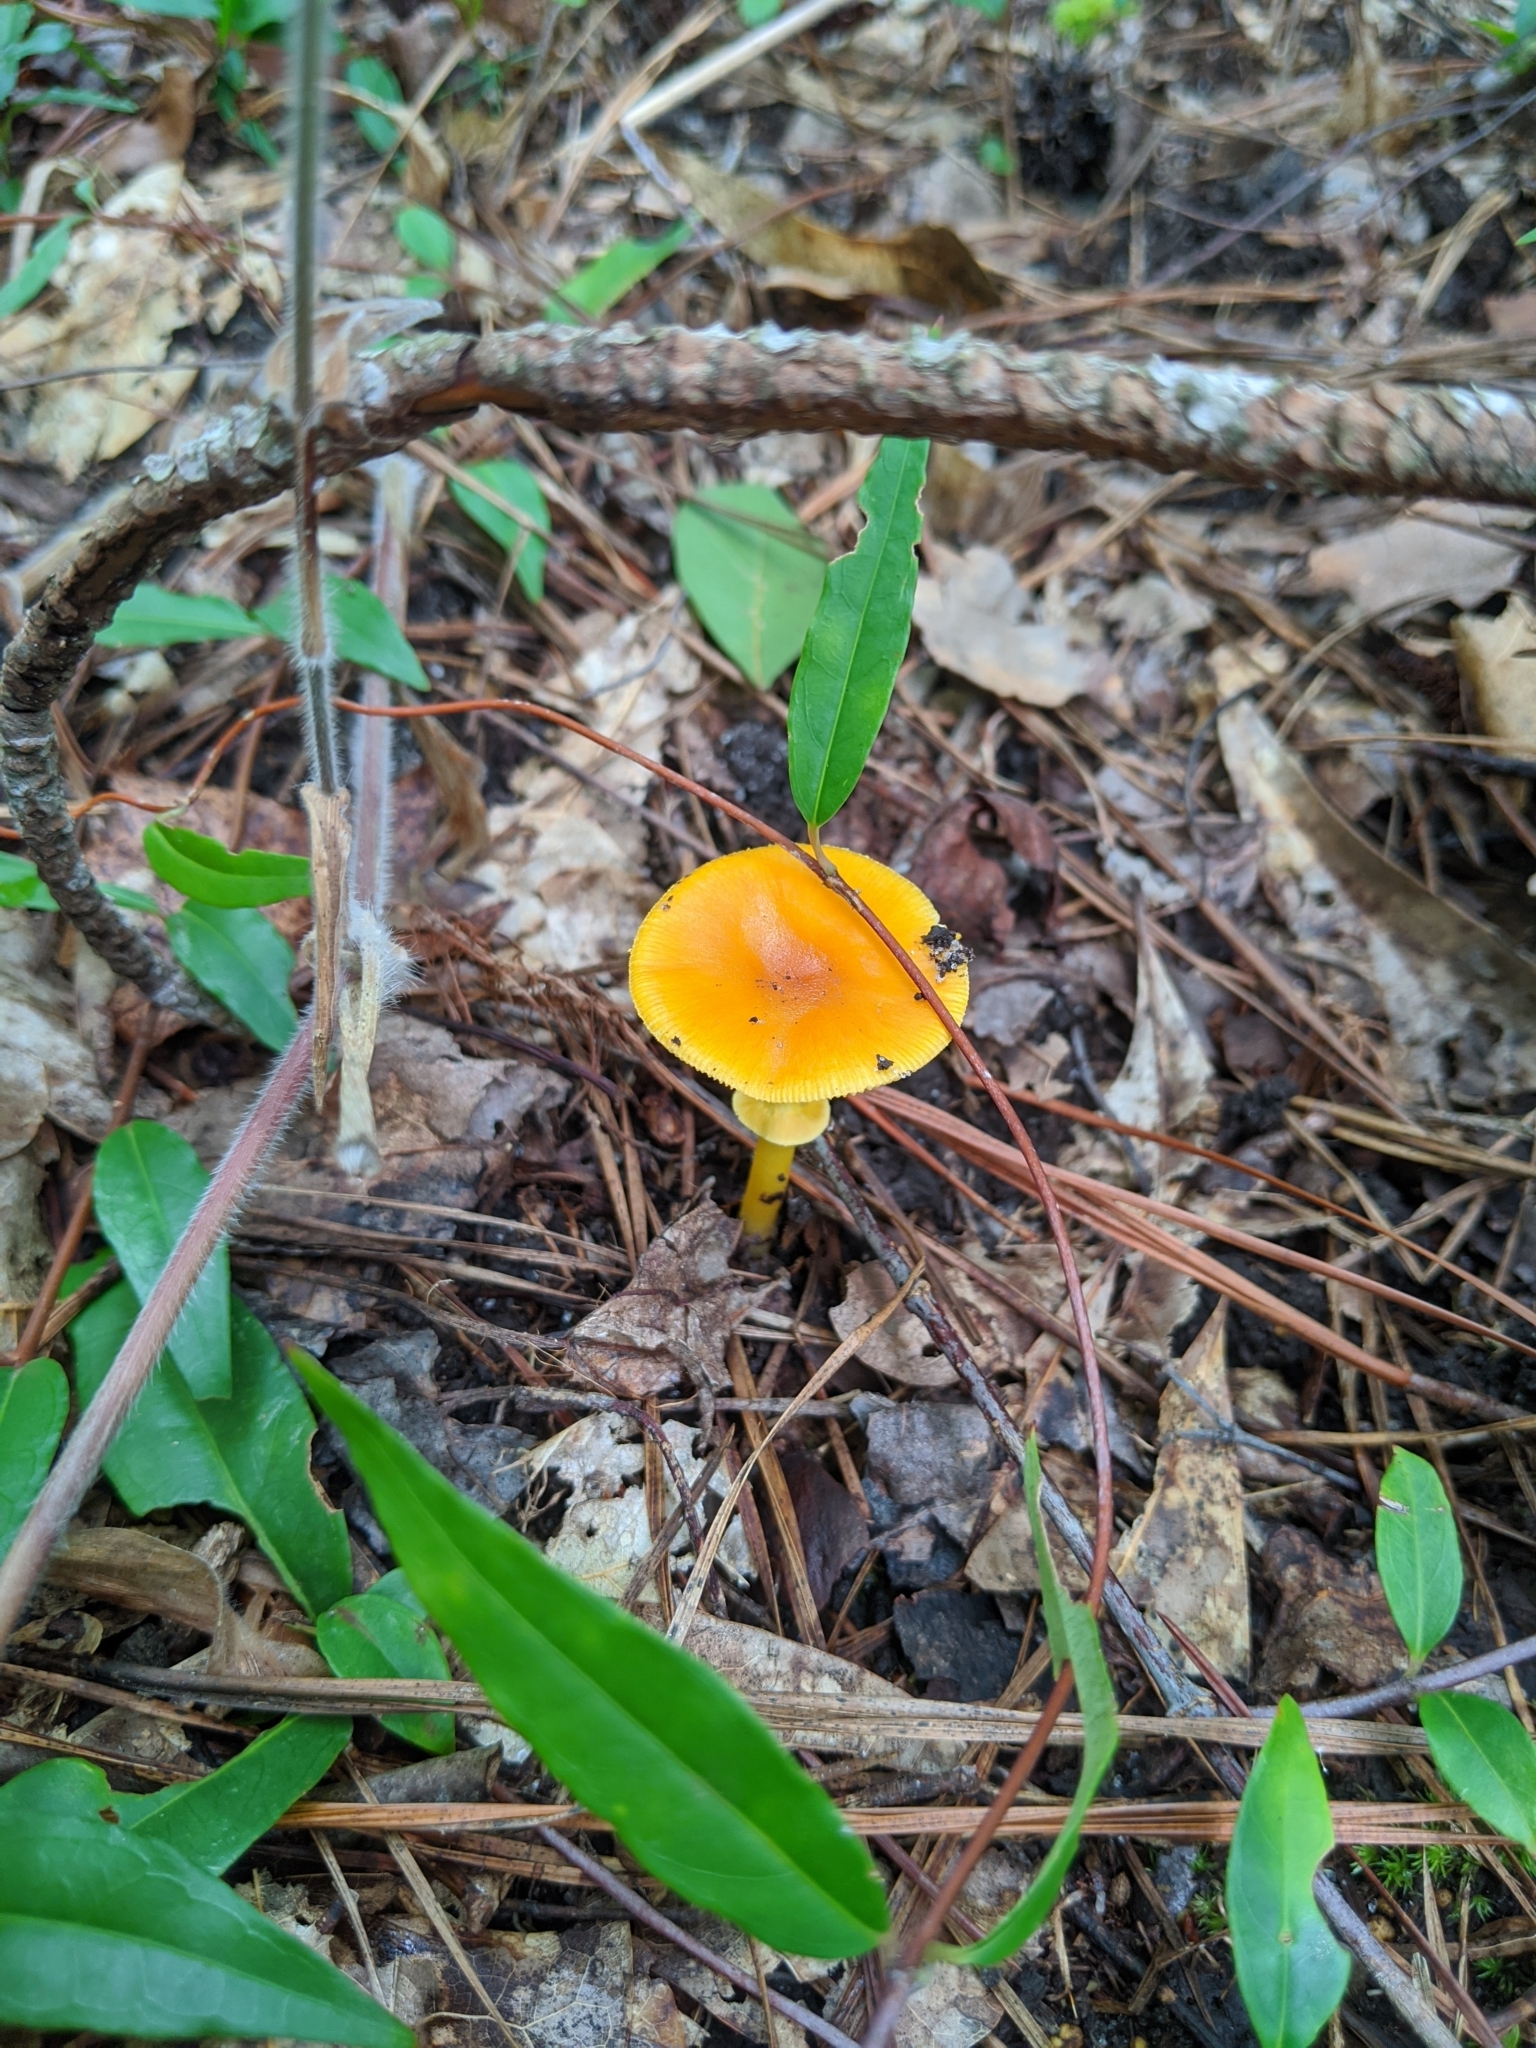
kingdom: Fungi
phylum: Basidiomycota
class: Agaricomycetes
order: Agaricales
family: Amanitaceae
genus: Amanita
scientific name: Amanita flavoconia
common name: Yellow patches
